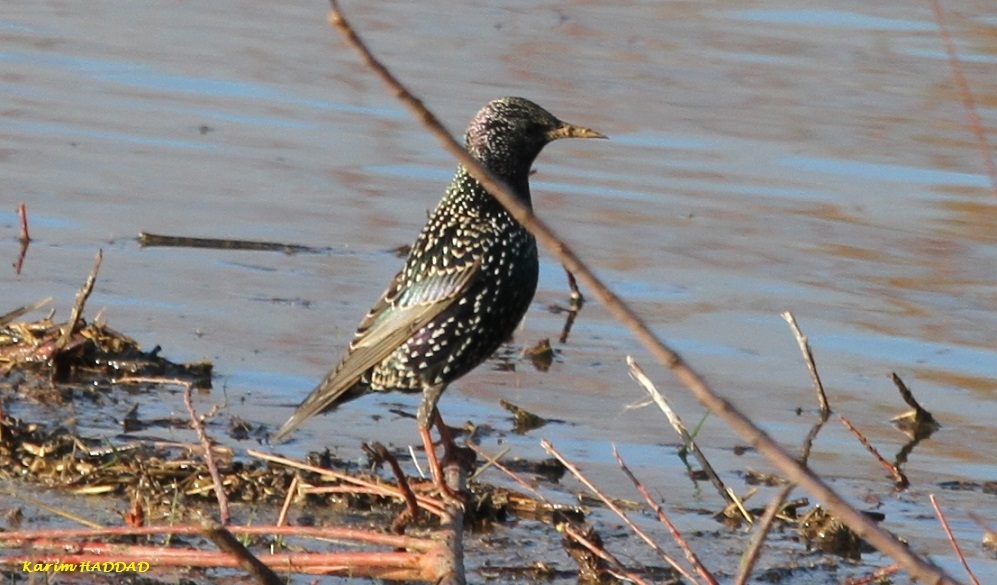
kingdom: Animalia
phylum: Chordata
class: Aves
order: Passeriformes
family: Sturnidae
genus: Sturnus
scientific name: Sturnus vulgaris
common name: Common starling
